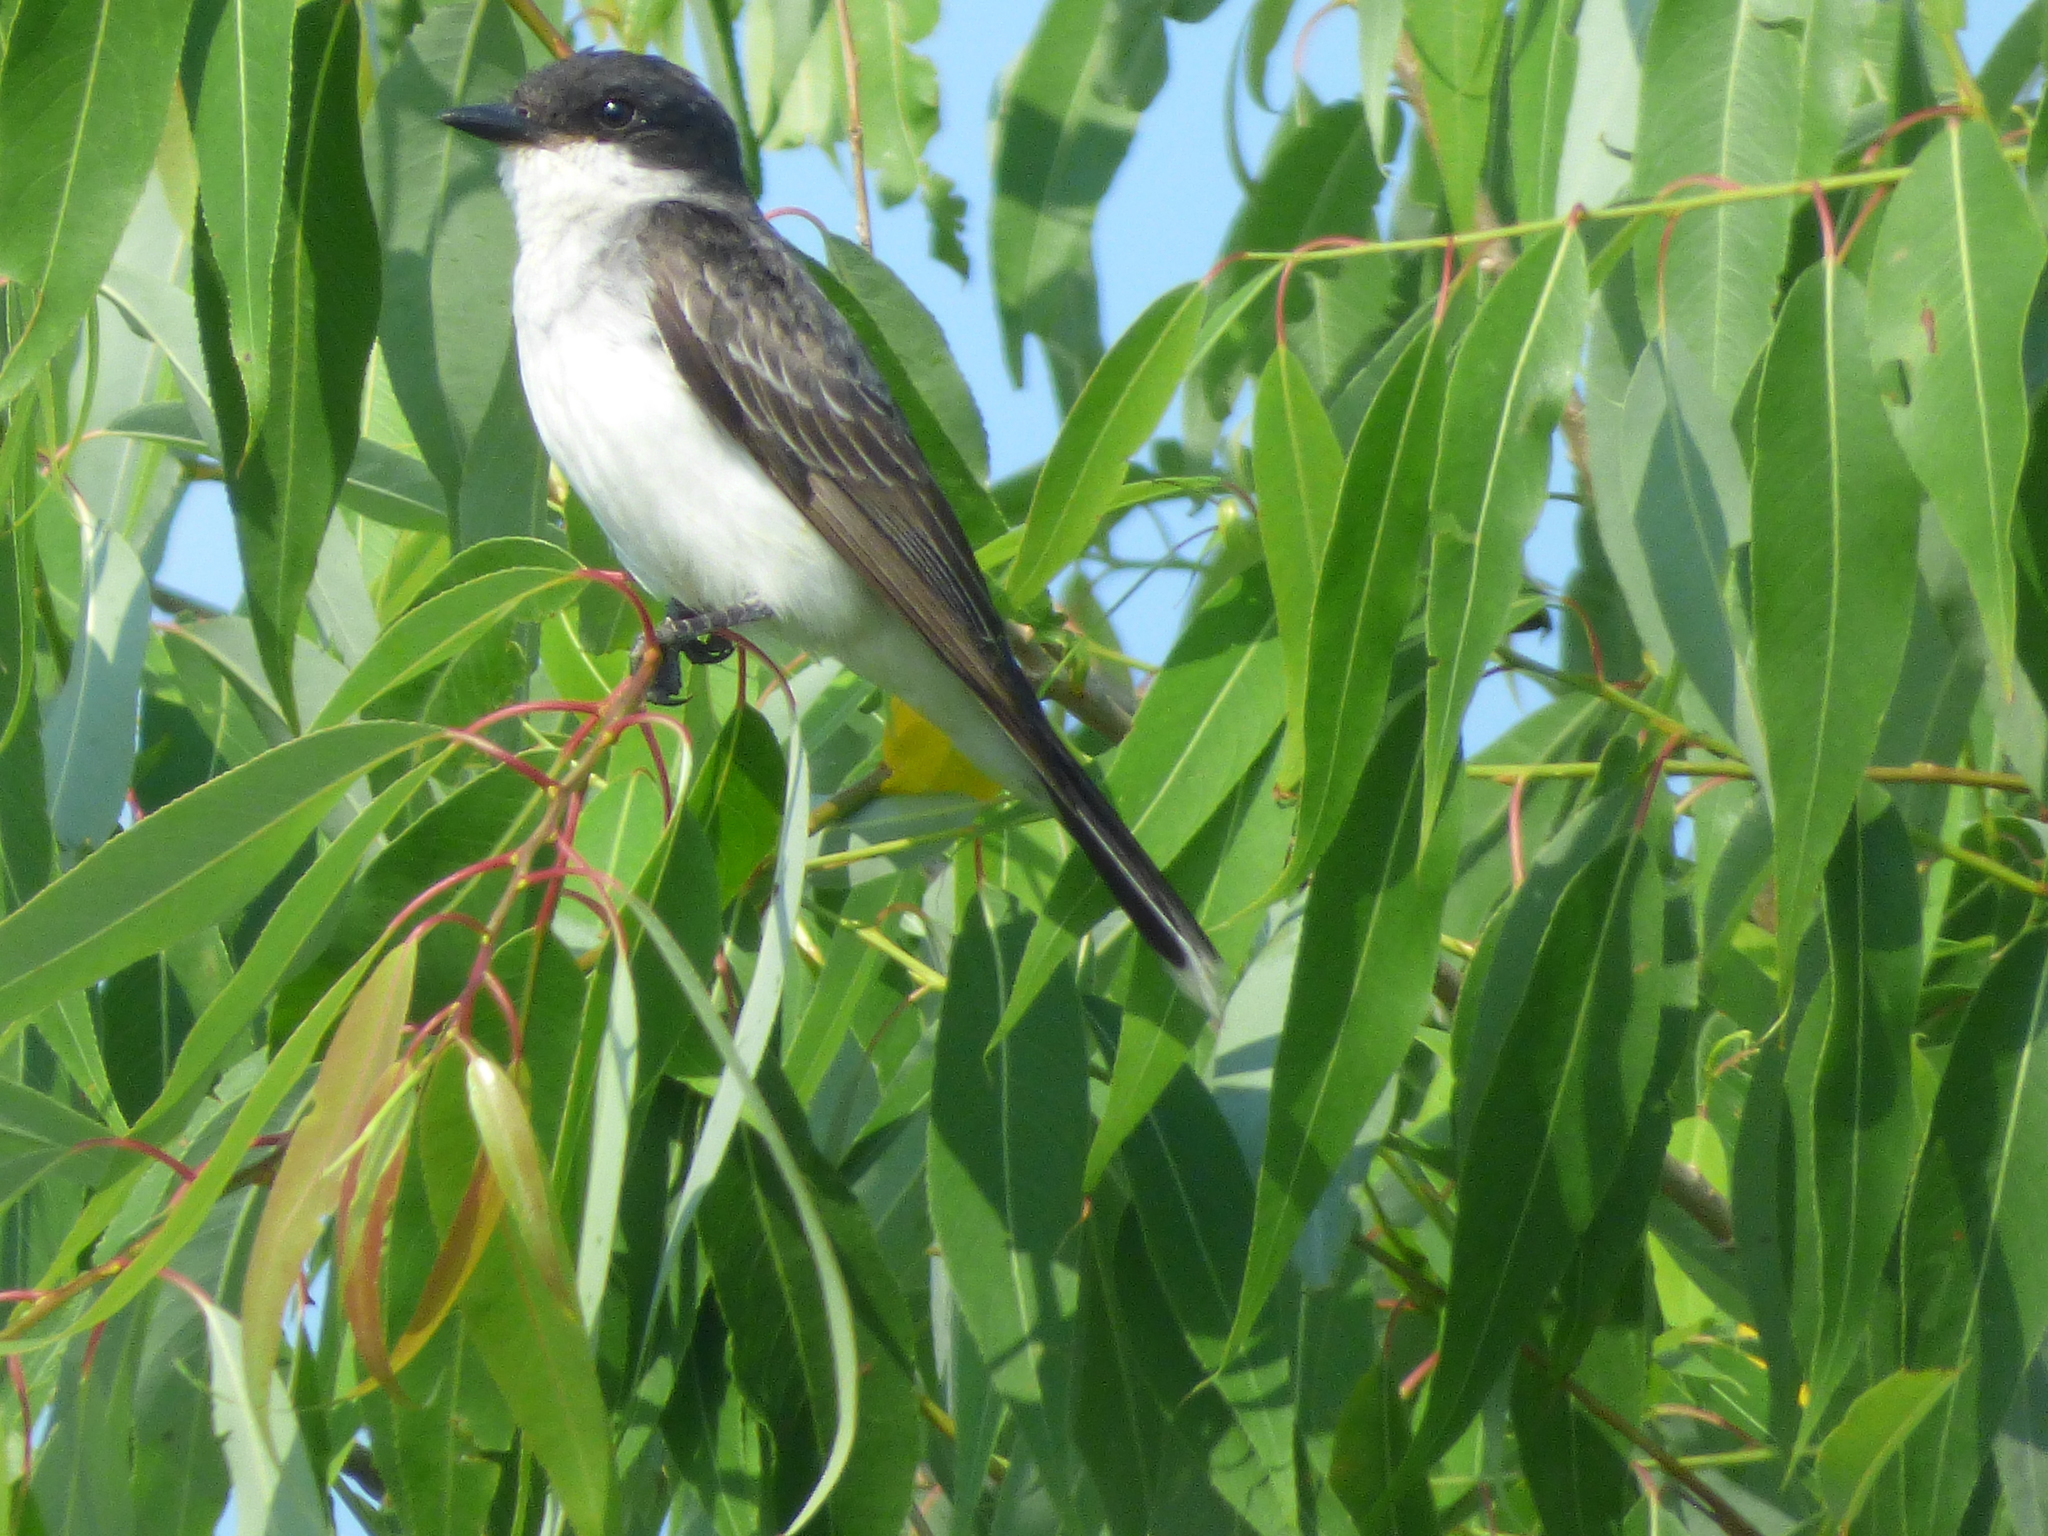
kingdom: Animalia
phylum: Chordata
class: Aves
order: Passeriformes
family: Tyrannidae
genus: Tyrannus
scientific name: Tyrannus tyrannus
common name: Eastern kingbird
